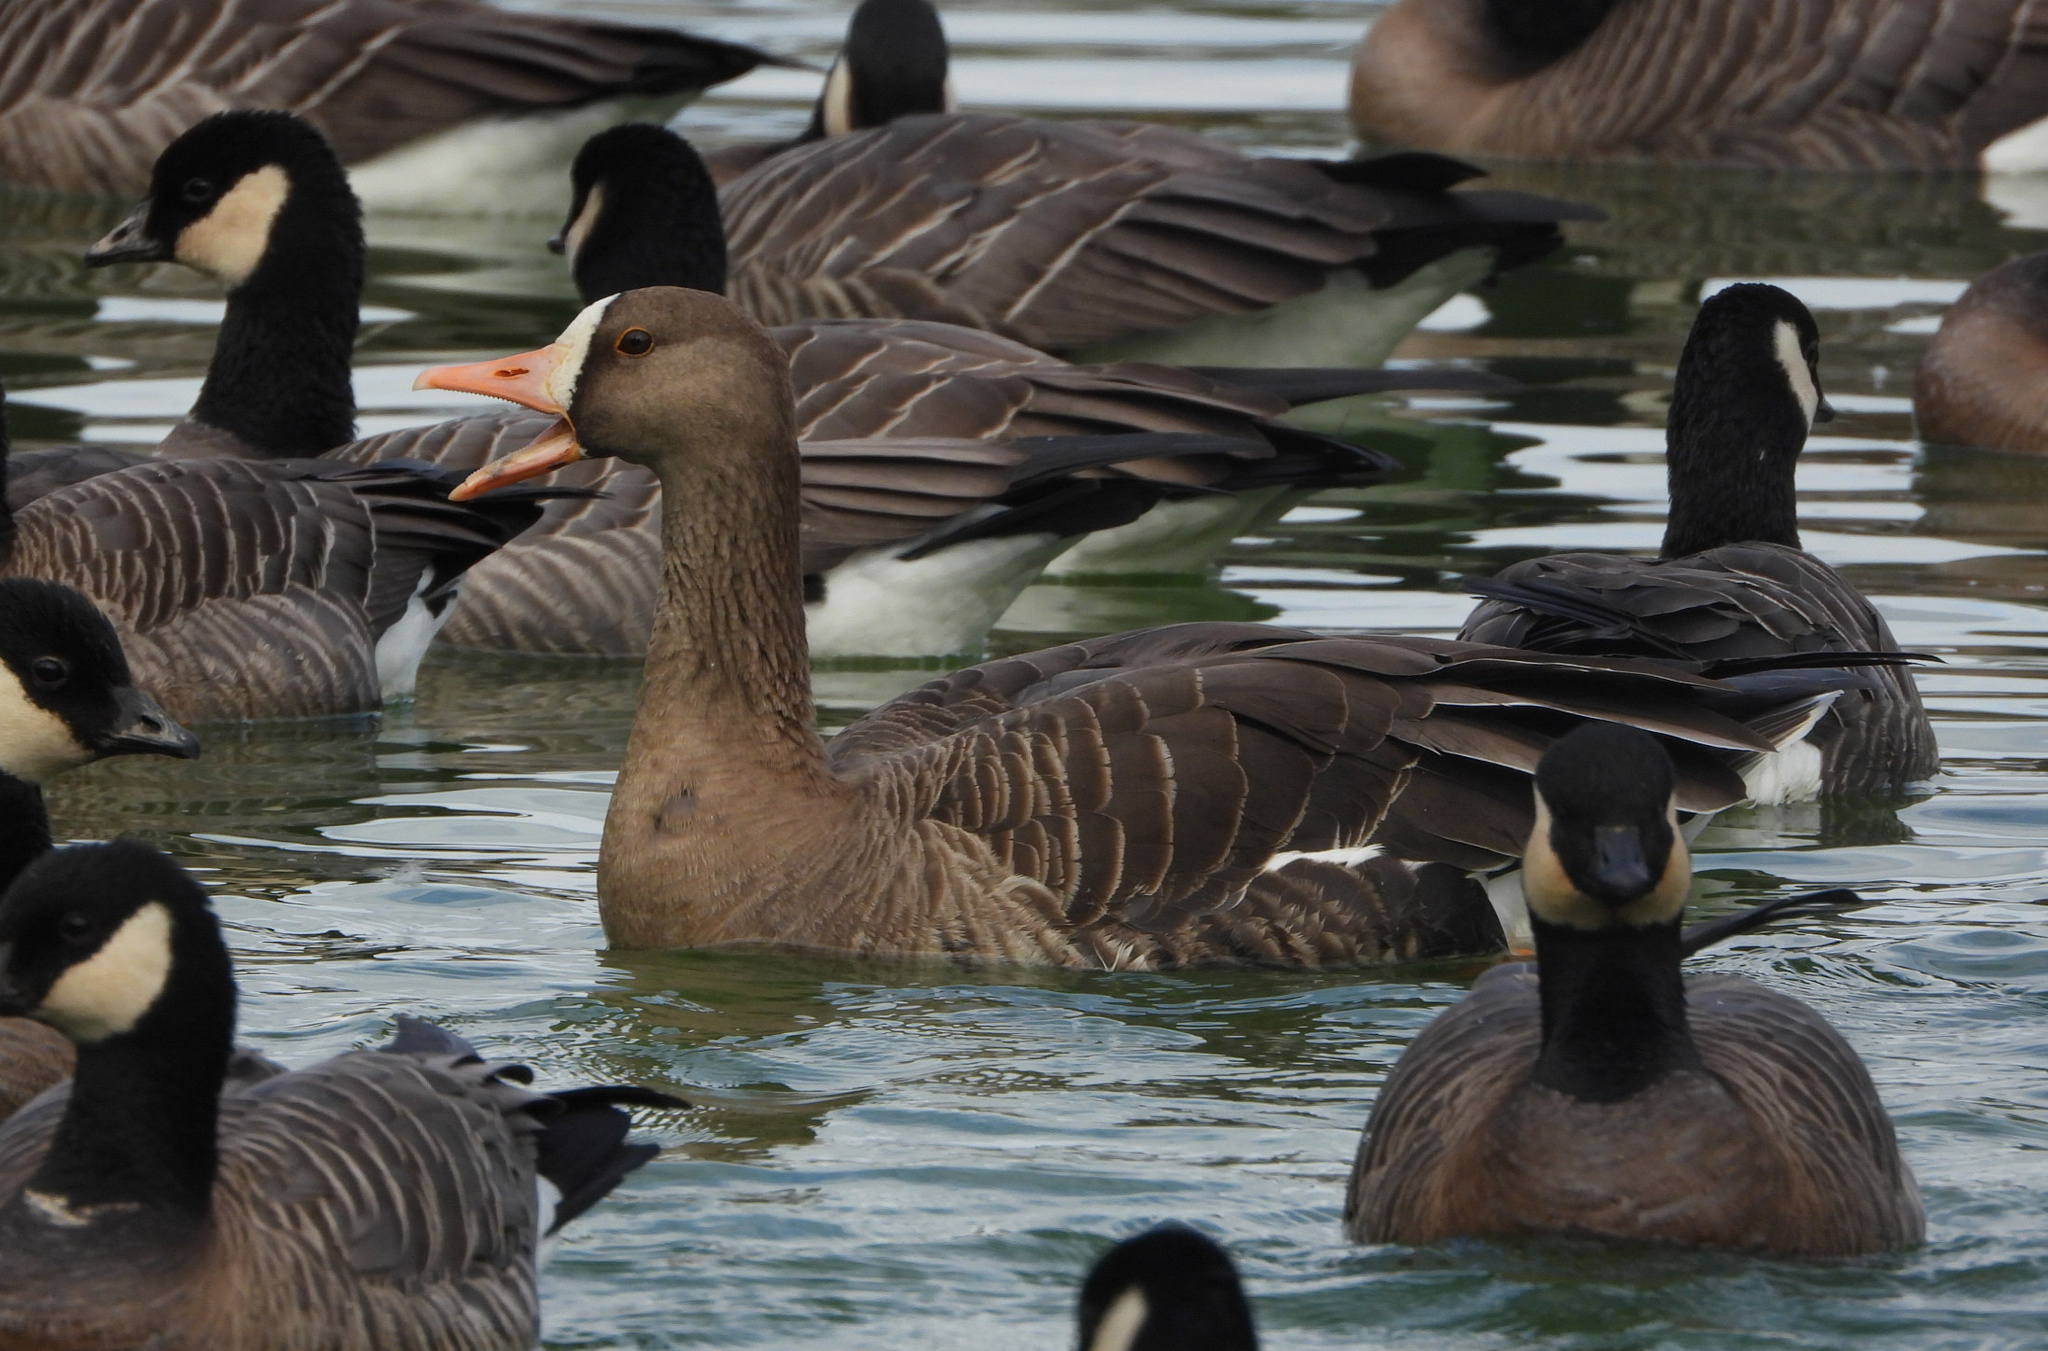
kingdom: Animalia
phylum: Chordata
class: Aves
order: Anseriformes
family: Anatidae
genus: Anser
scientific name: Anser albifrons
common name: Greater white-fronted goose
